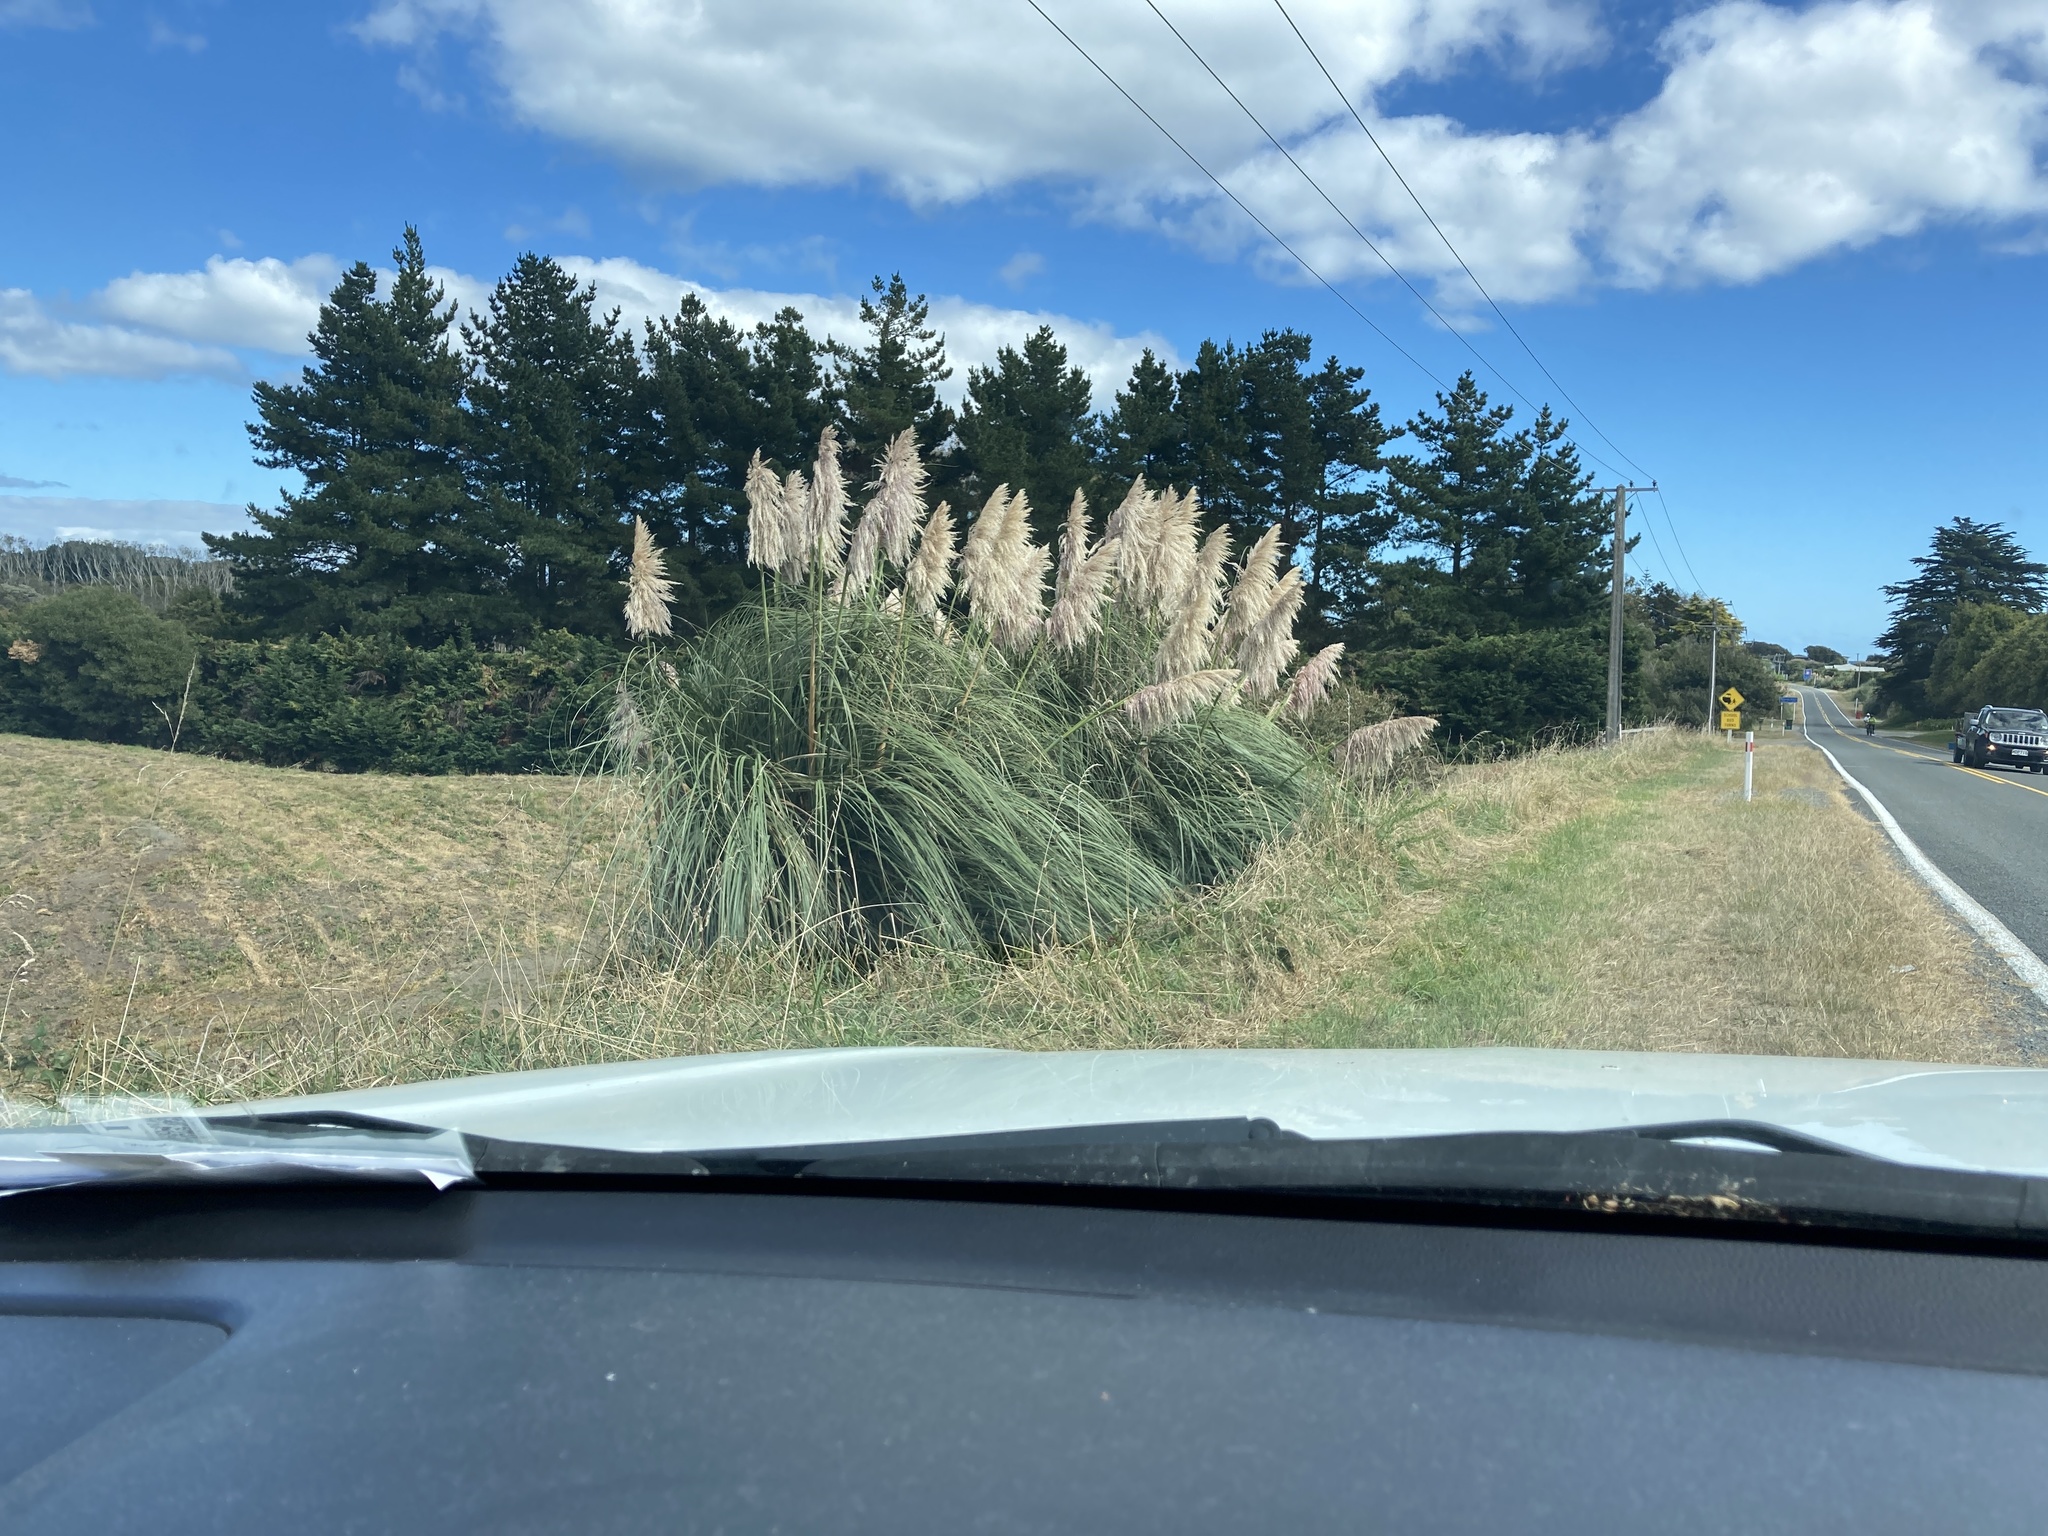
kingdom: Plantae
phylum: Tracheophyta
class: Liliopsida
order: Poales
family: Poaceae
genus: Cortaderia
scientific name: Cortaderia jubata
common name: Purple pampas grass
